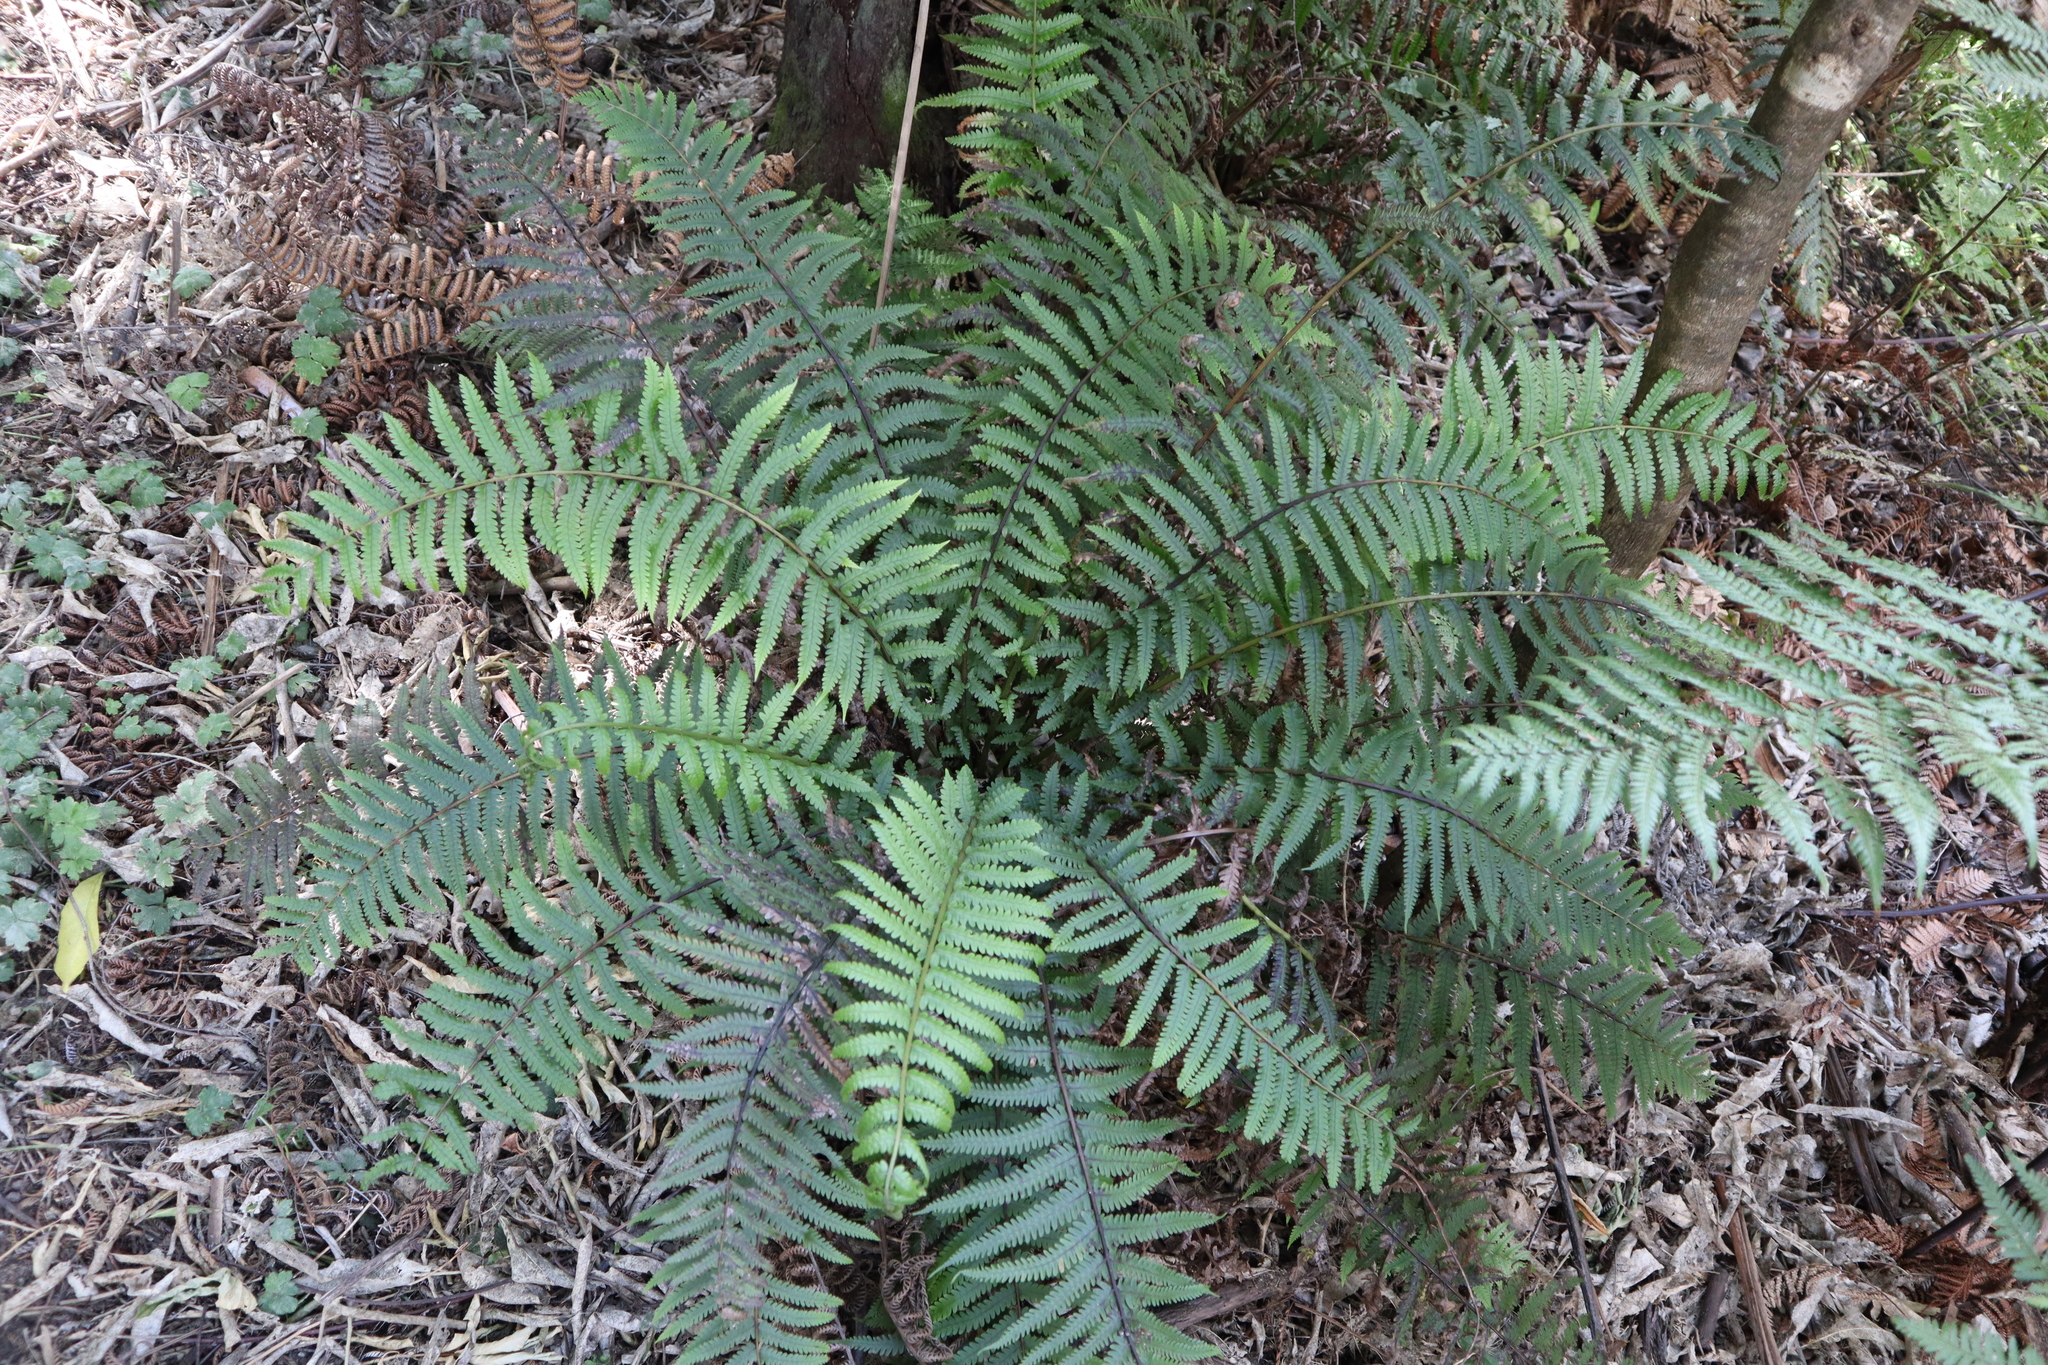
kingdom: Plantae
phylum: Tracheophyta
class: Polypodiopsida
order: Polypodiales
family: Thelypteridaceae
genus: Pakau
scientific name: Pakau pennigera
